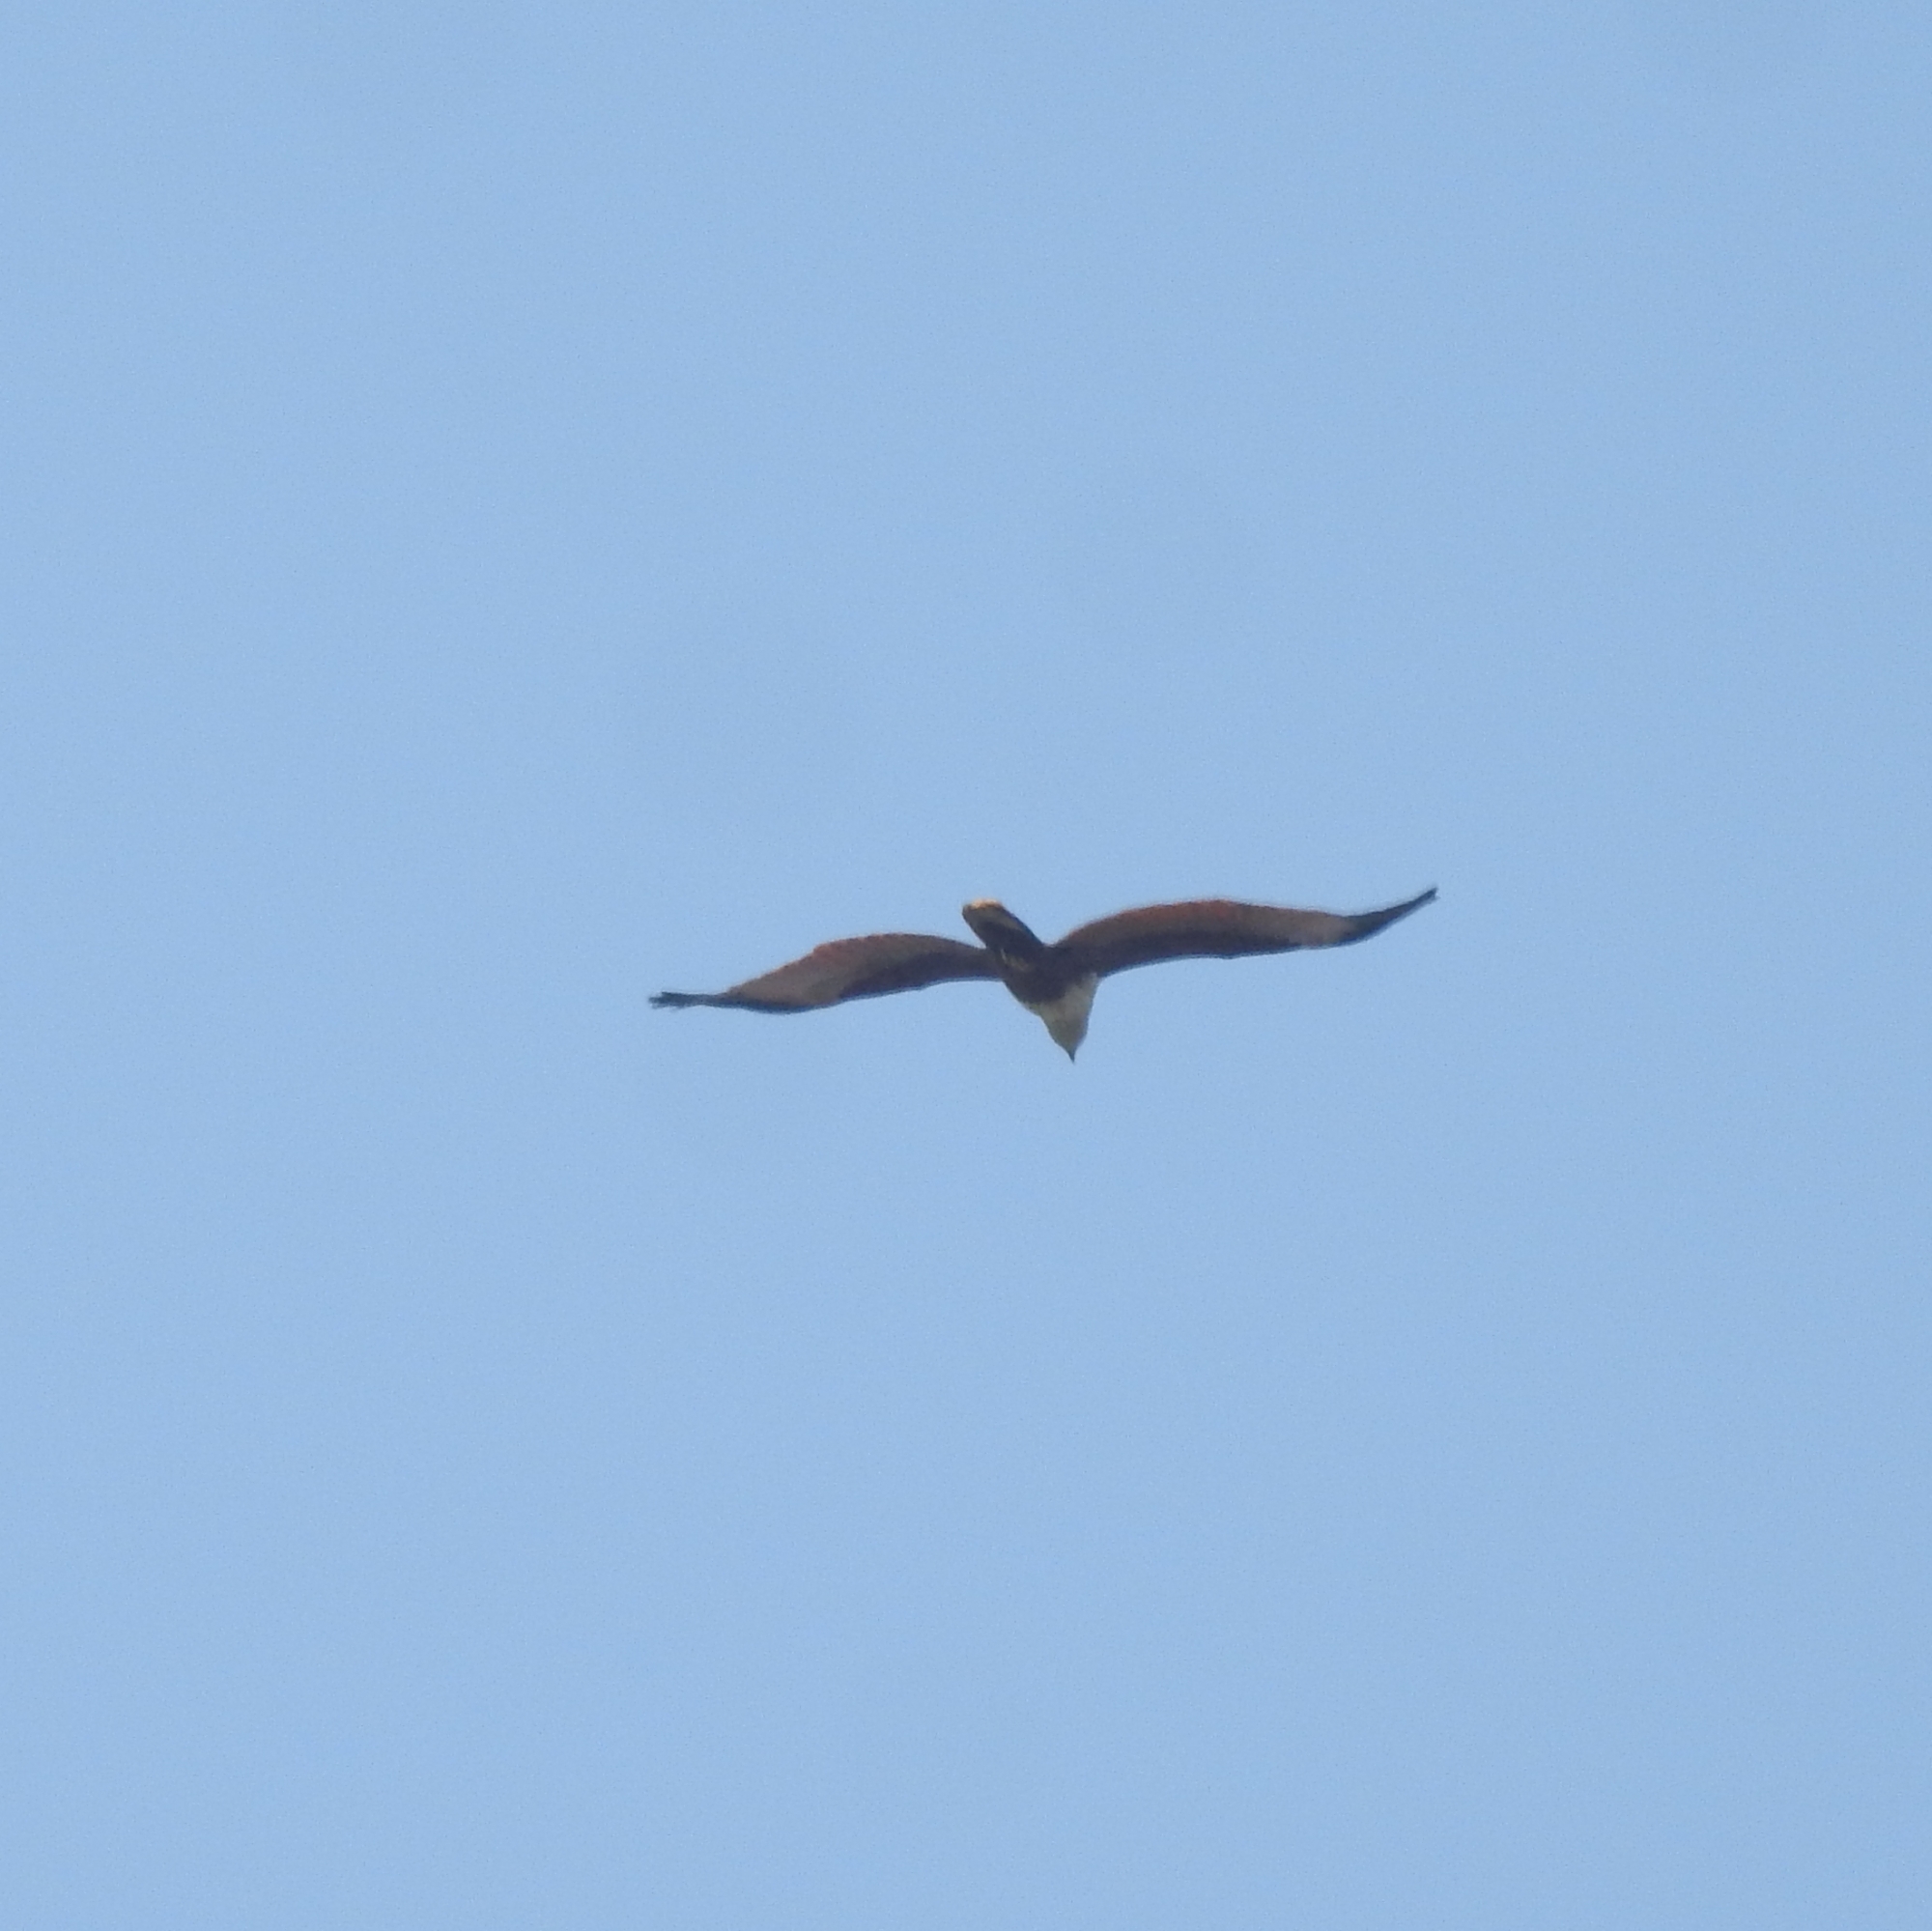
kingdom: Animalia
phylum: Chordata
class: Aves
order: Accipitriformes
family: Accipitridae
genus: Haliastur
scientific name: Haliastur indus
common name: Brahminy kite
